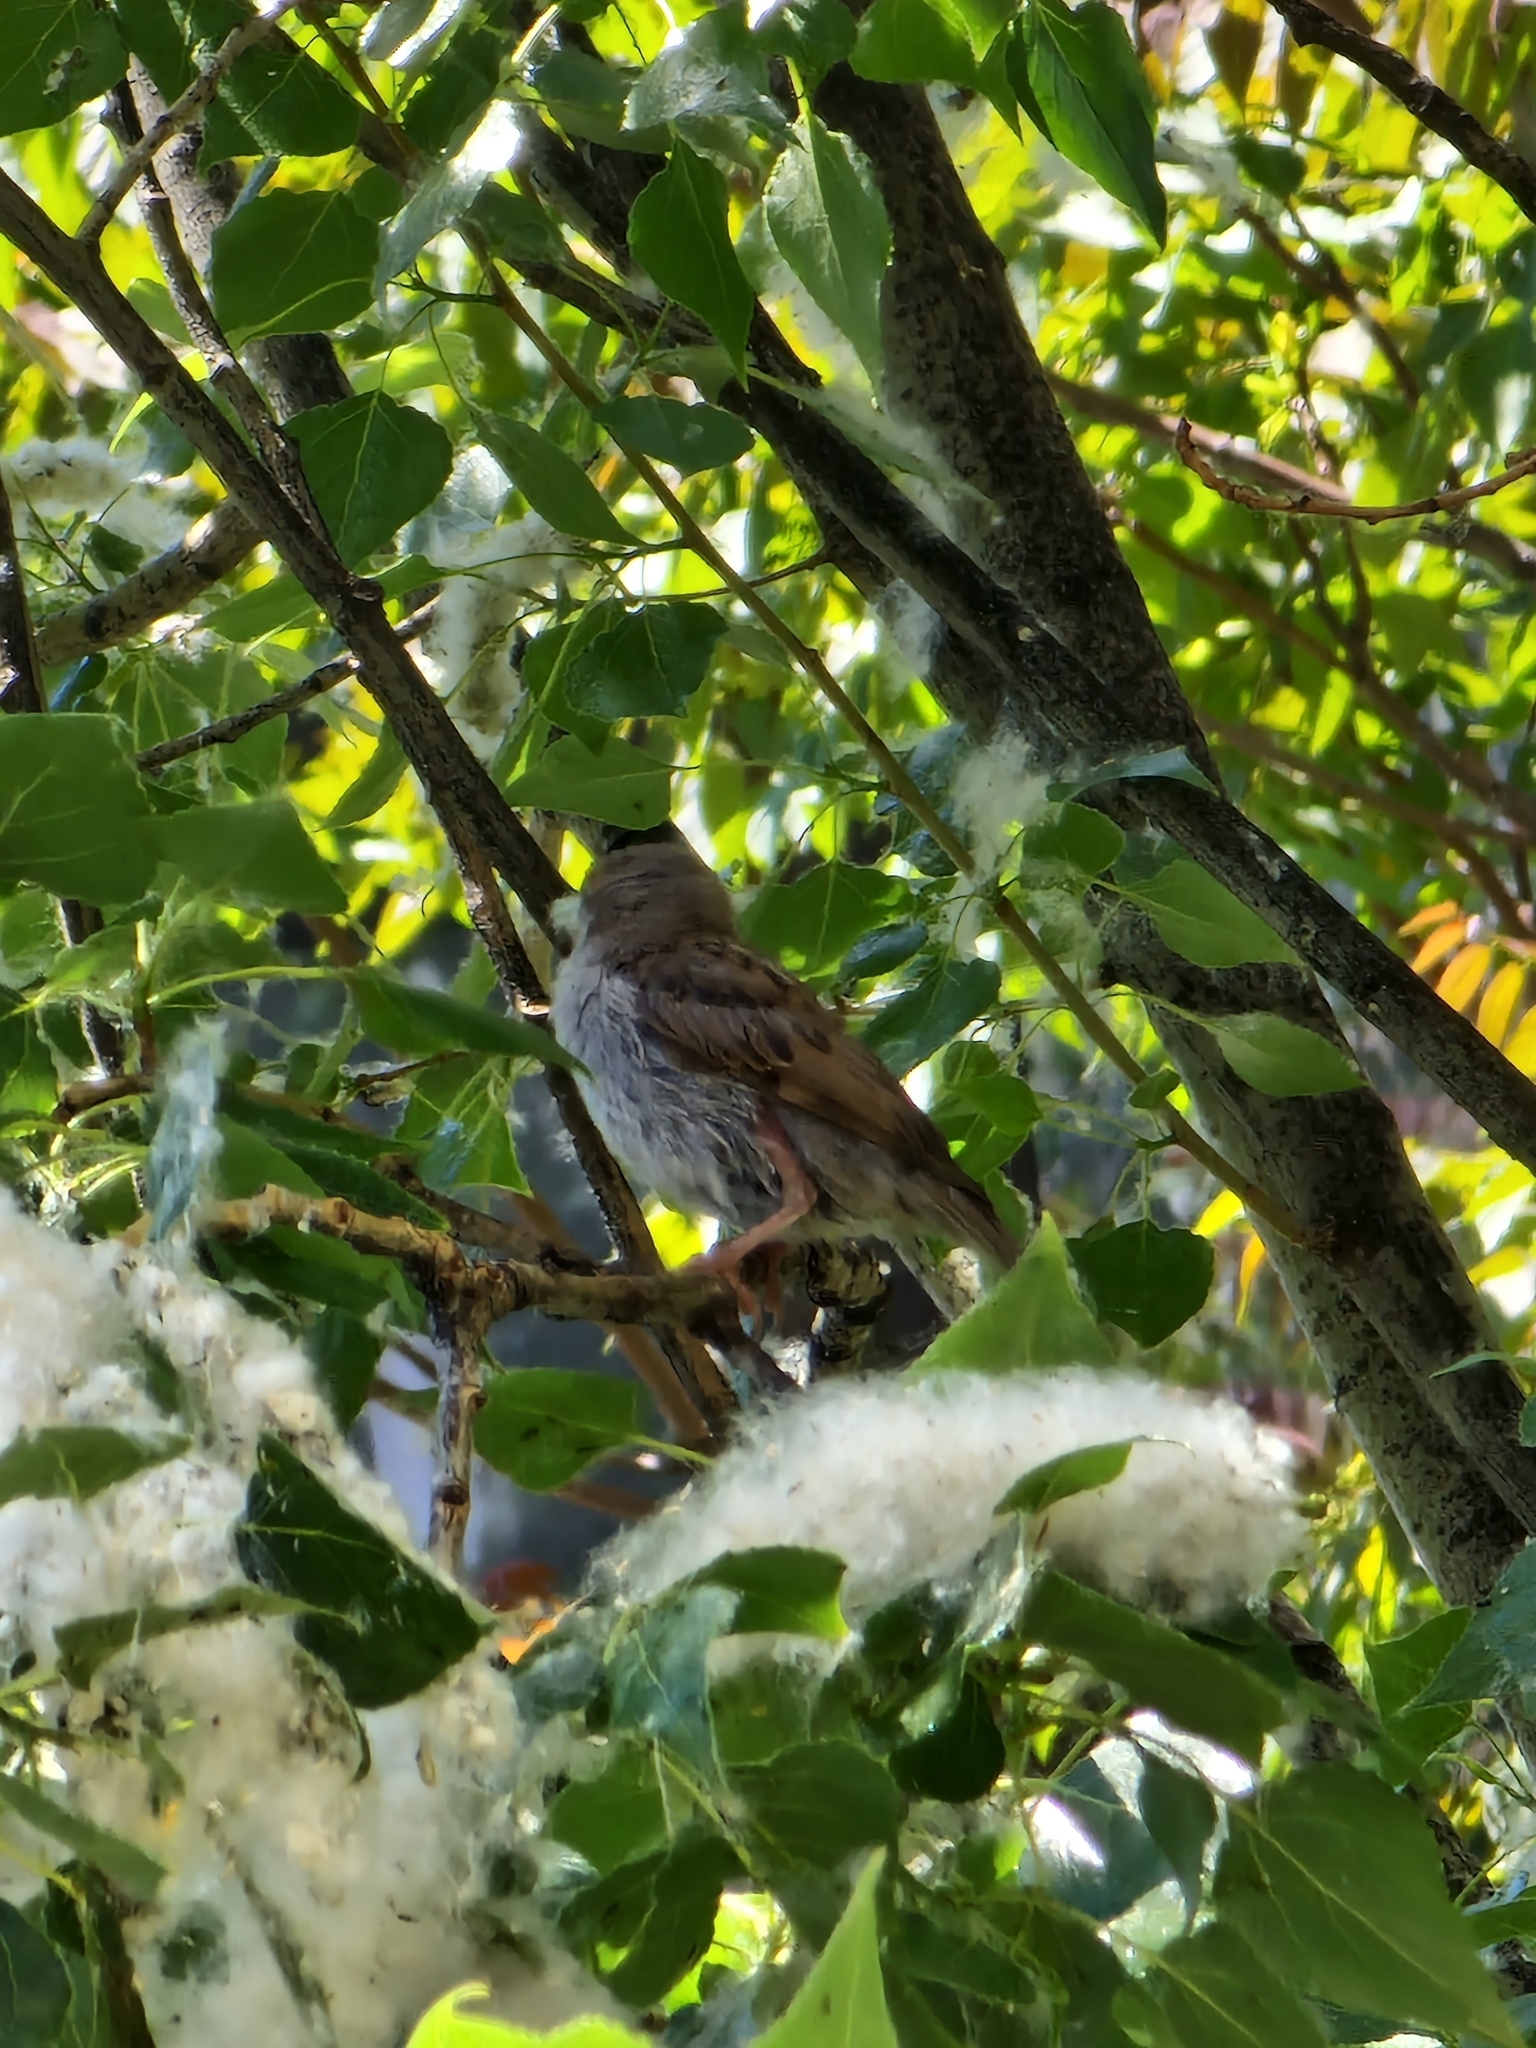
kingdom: Animalia
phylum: Chordata
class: Aves
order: Passeriformes
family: Passeridae
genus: Passer
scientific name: Passer domesticus
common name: House sparrow
